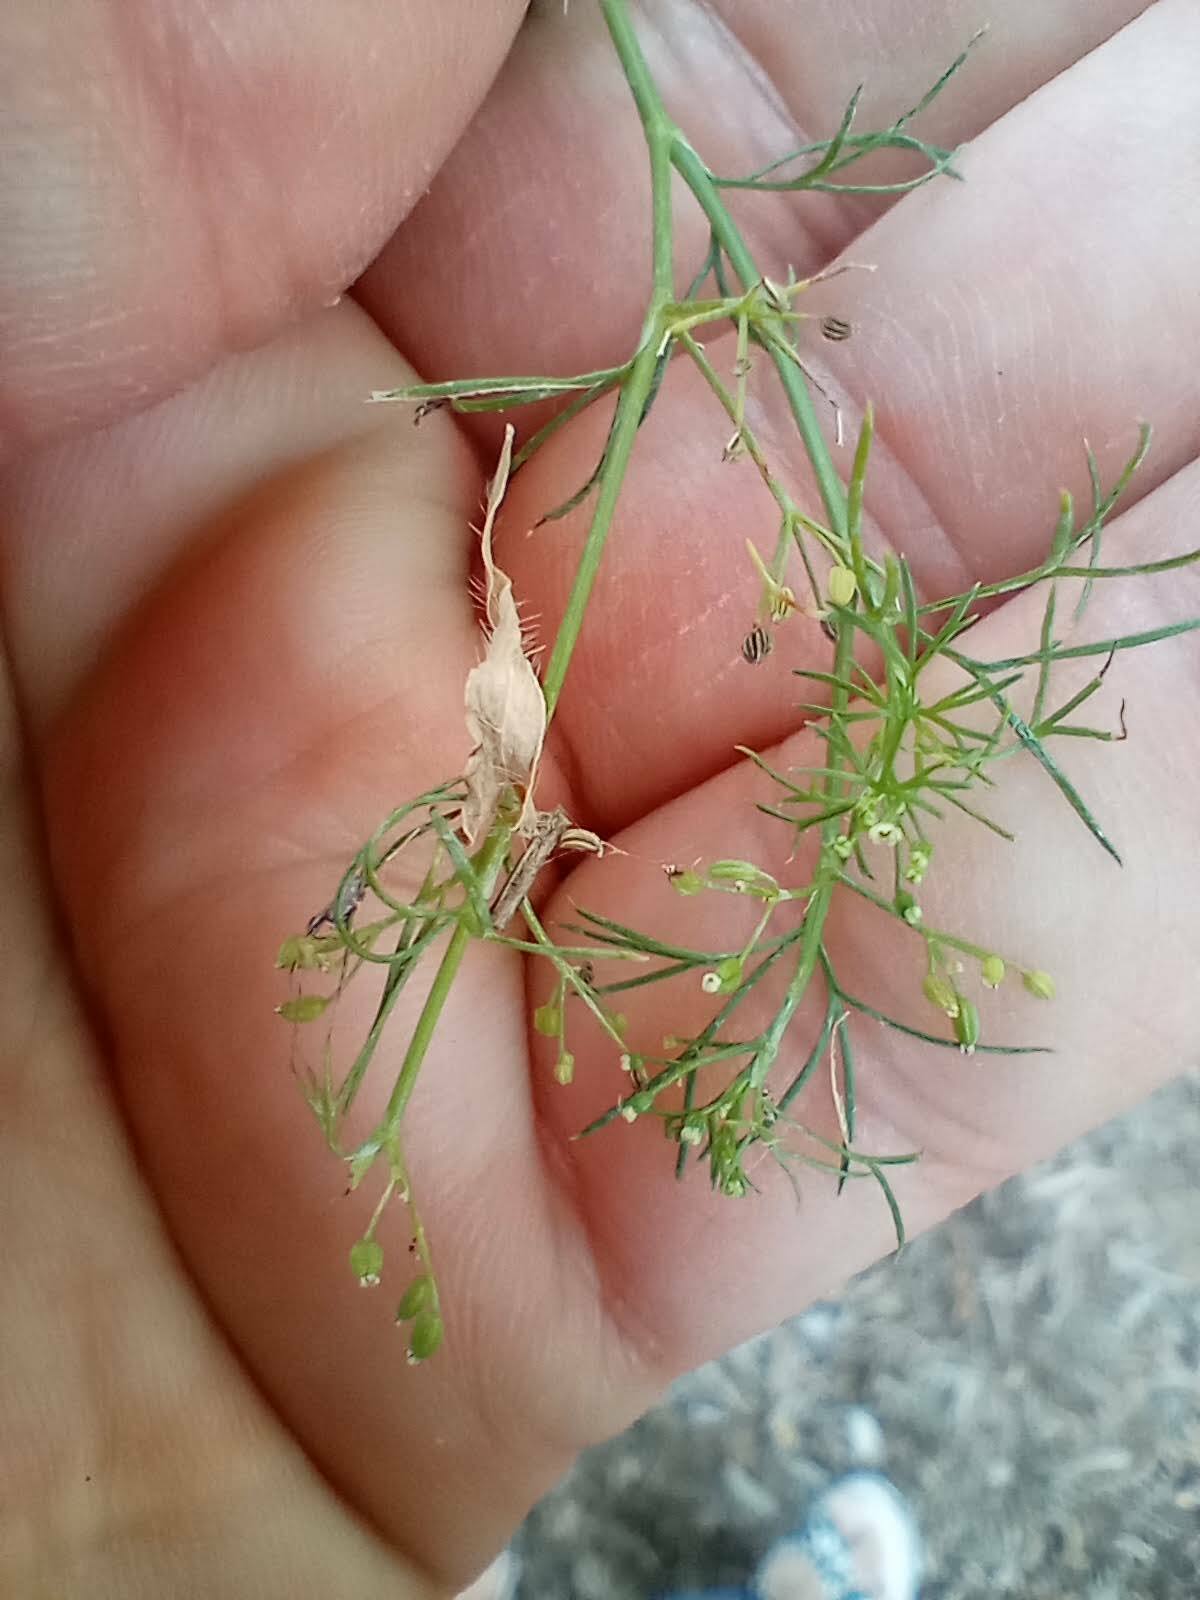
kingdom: Plantae
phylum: Tracheophyta
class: Magnoliopsida
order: Apiales
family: Apiaceae
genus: Cyclospermum
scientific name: Cyclospermum leptophyllum
